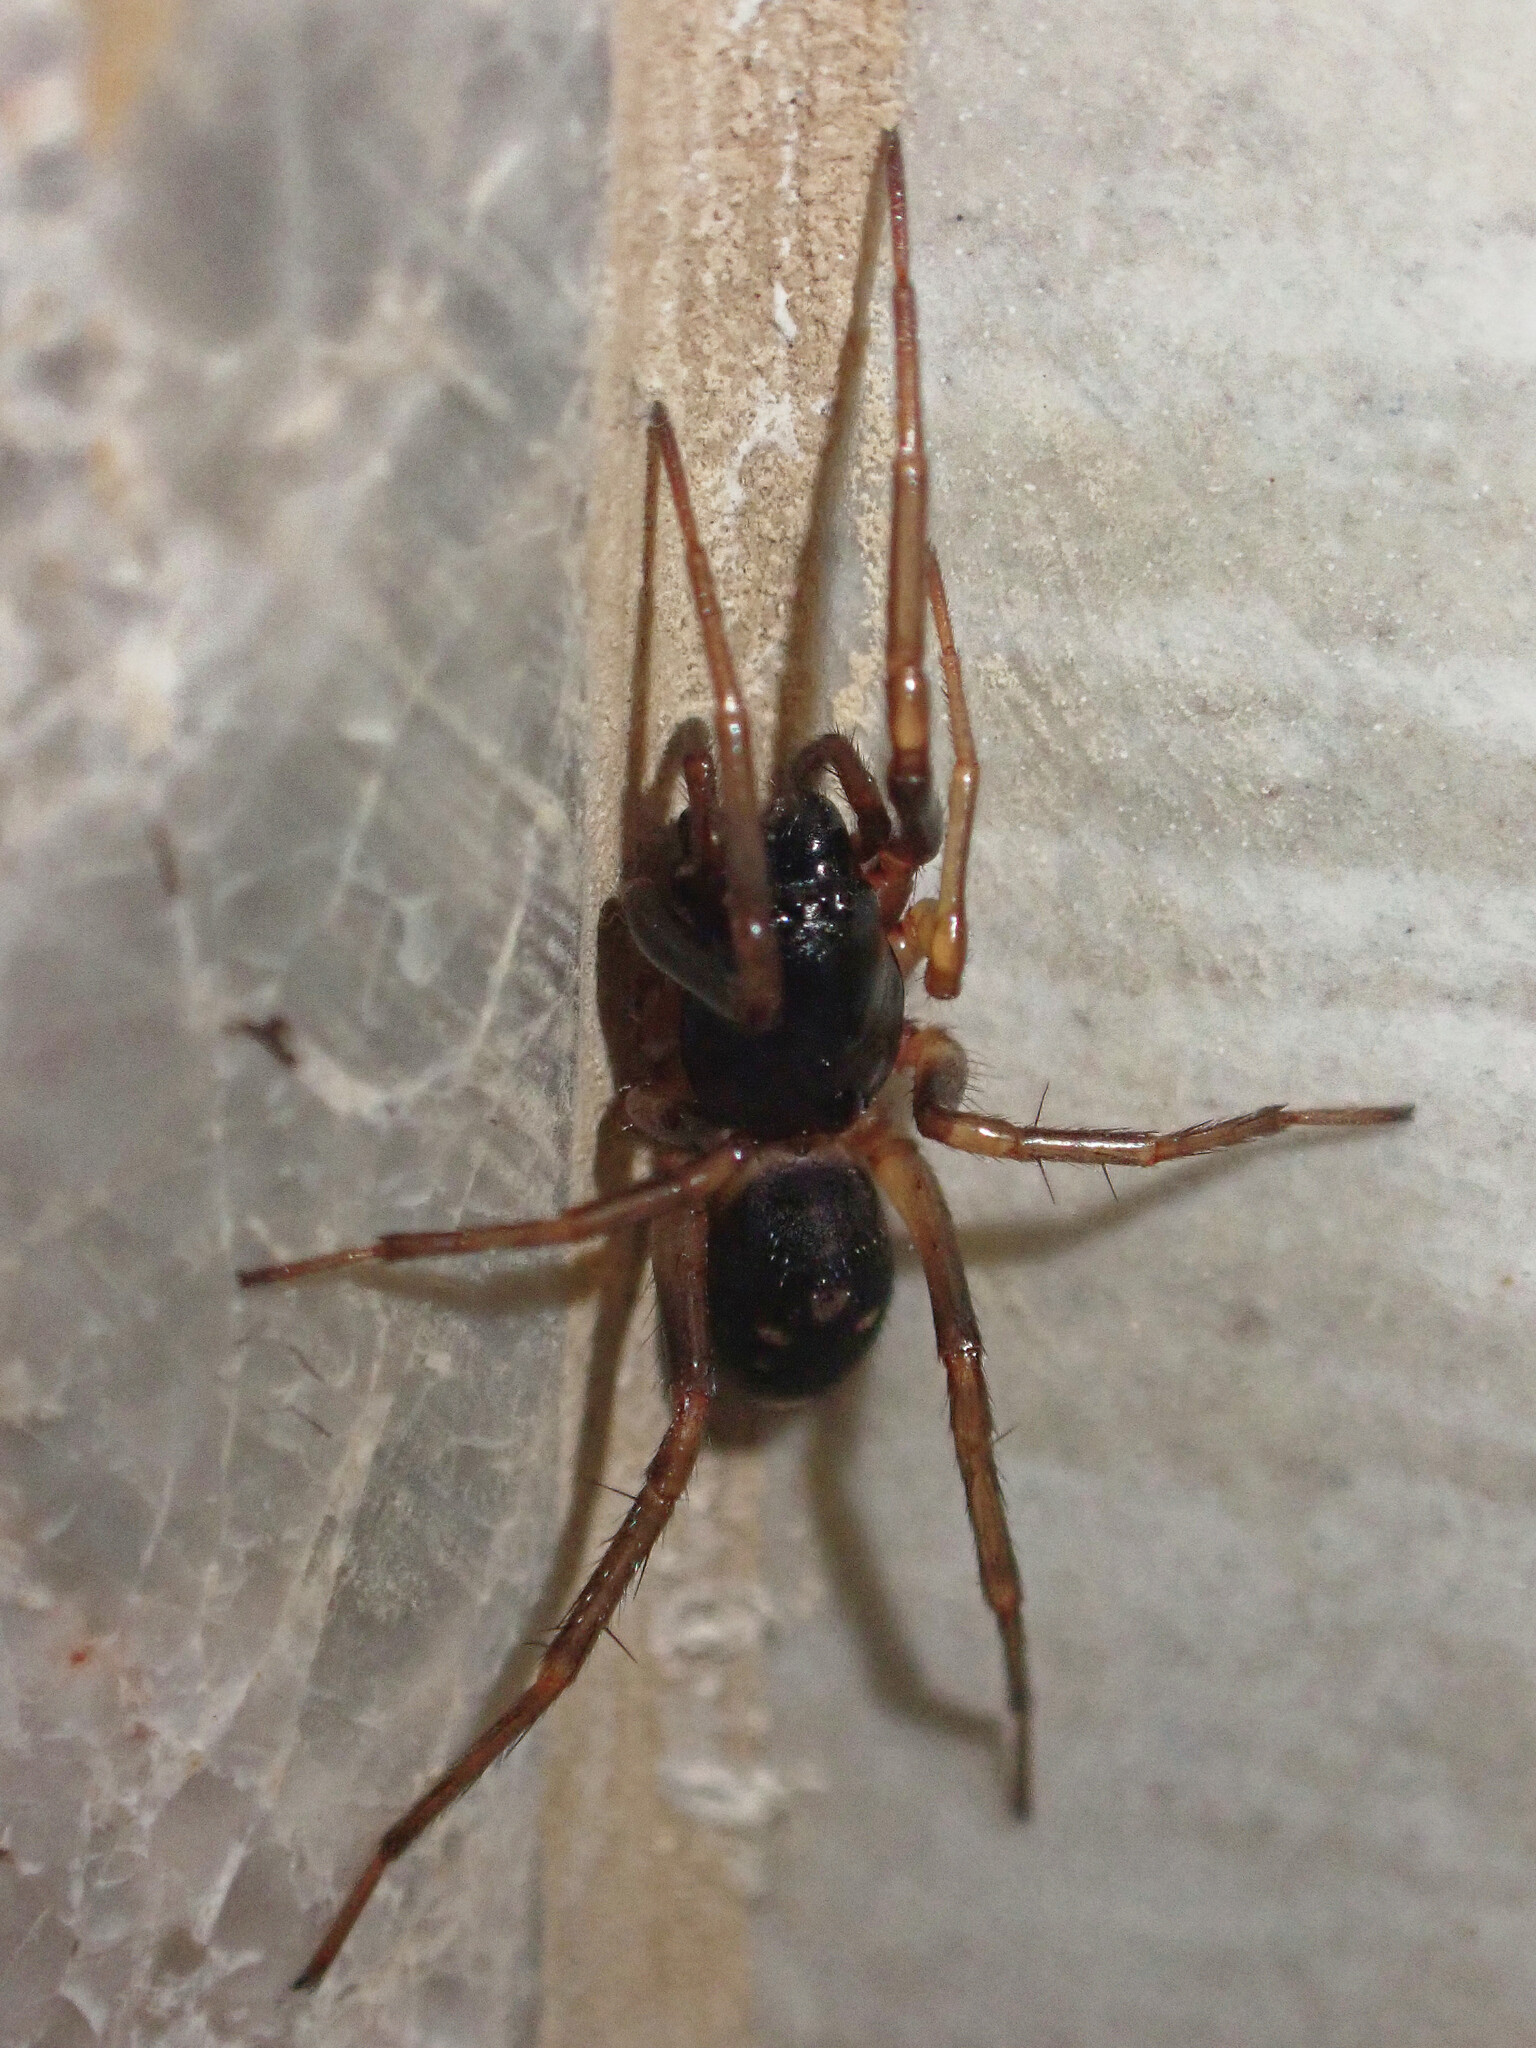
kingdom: Animalia
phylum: Arthropoda
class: Arachnida
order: Araneae
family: Corinnidae
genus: Falconina
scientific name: Falconina gracilis
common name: Antmimic spider
